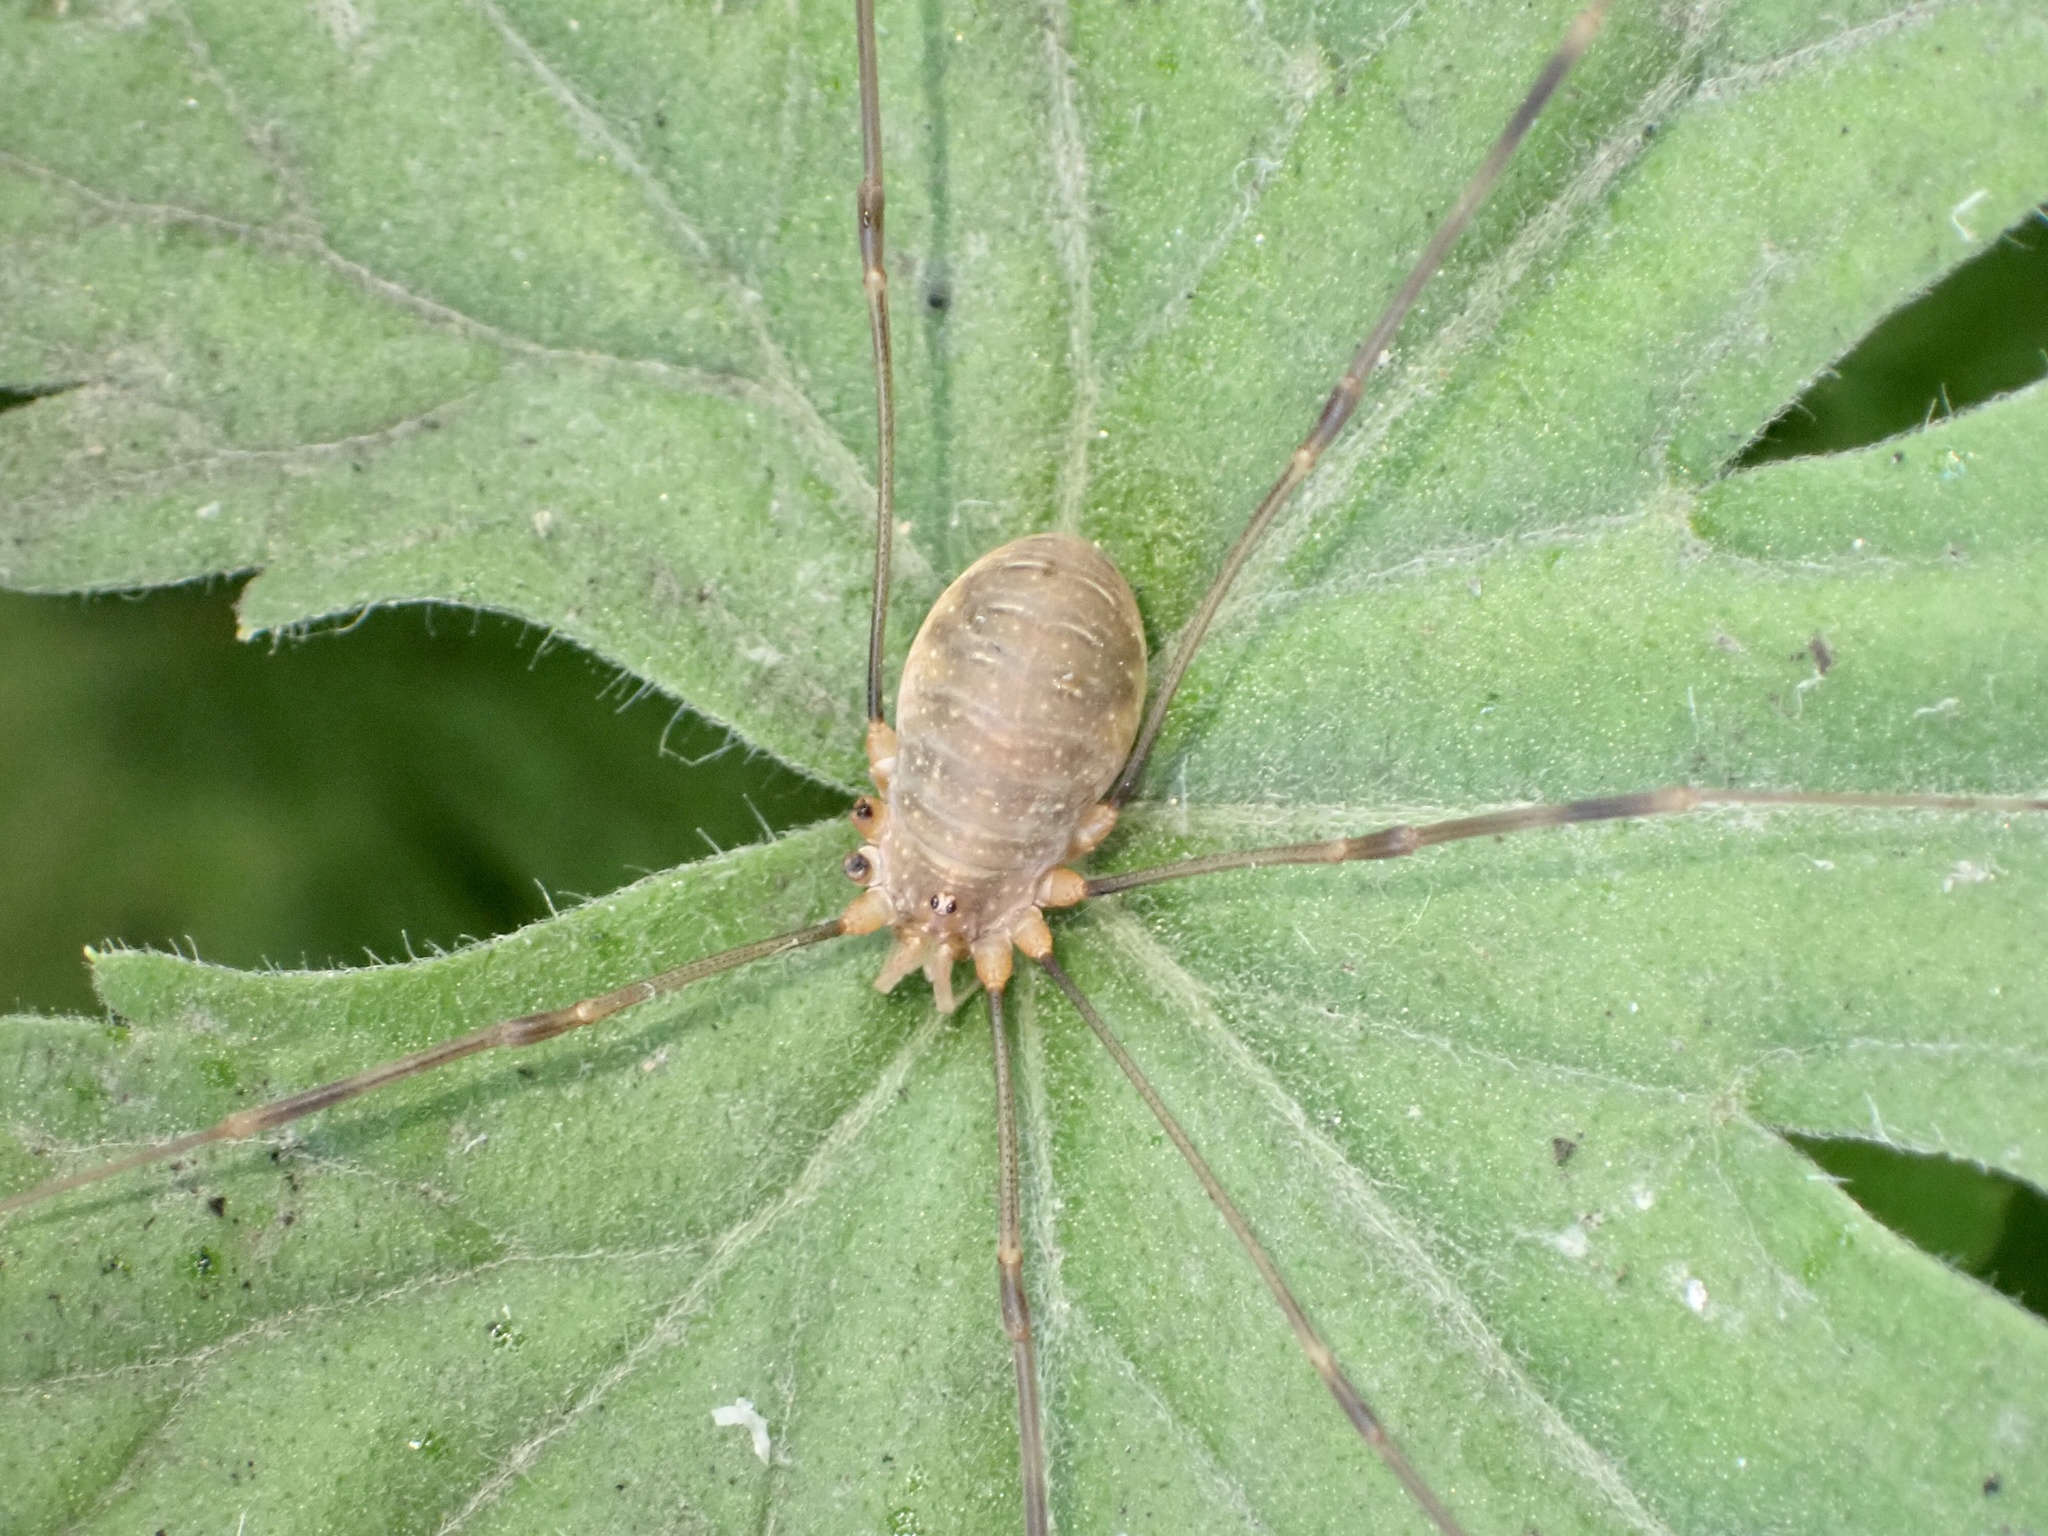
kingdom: Animalia
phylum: Arthropoda
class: Arachnida
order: Opiliones
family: Phalangiidae
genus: Opilio
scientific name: Opilio canestrinii
